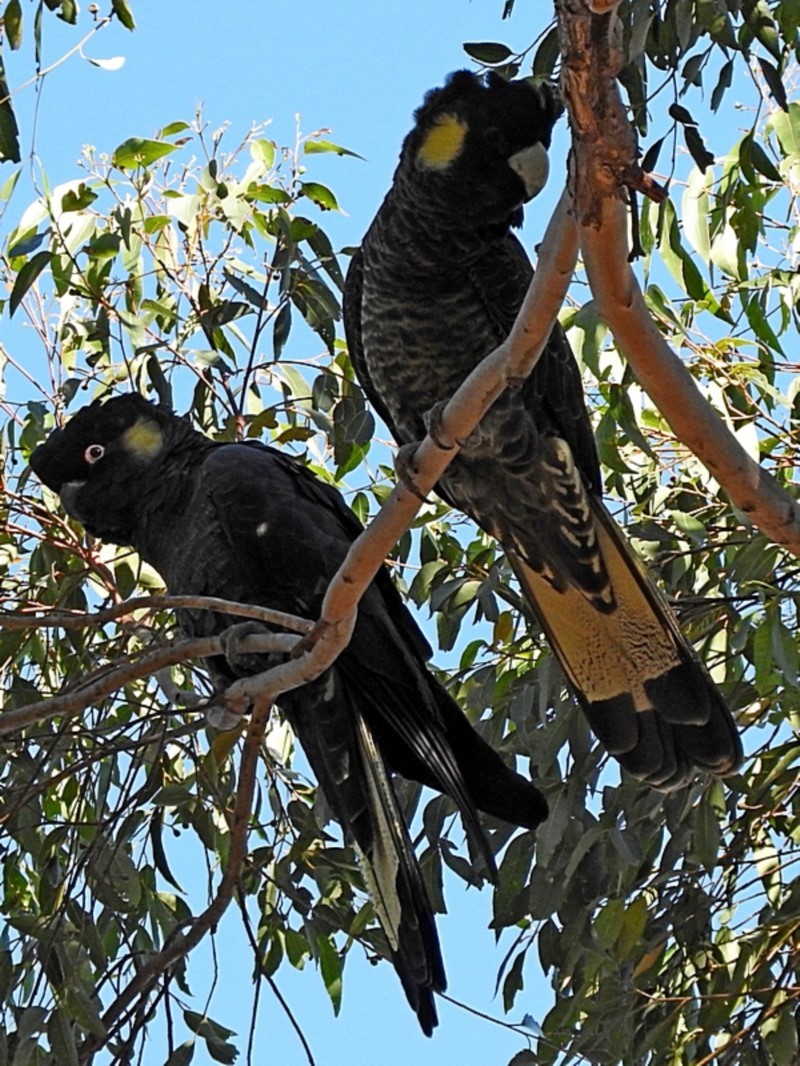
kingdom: Animalia
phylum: Chordata
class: Aves
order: Psittaciformes
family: Cacatuidae
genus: Zanda
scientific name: Zanda funerea
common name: Yellow-tailed black-cockatoo
